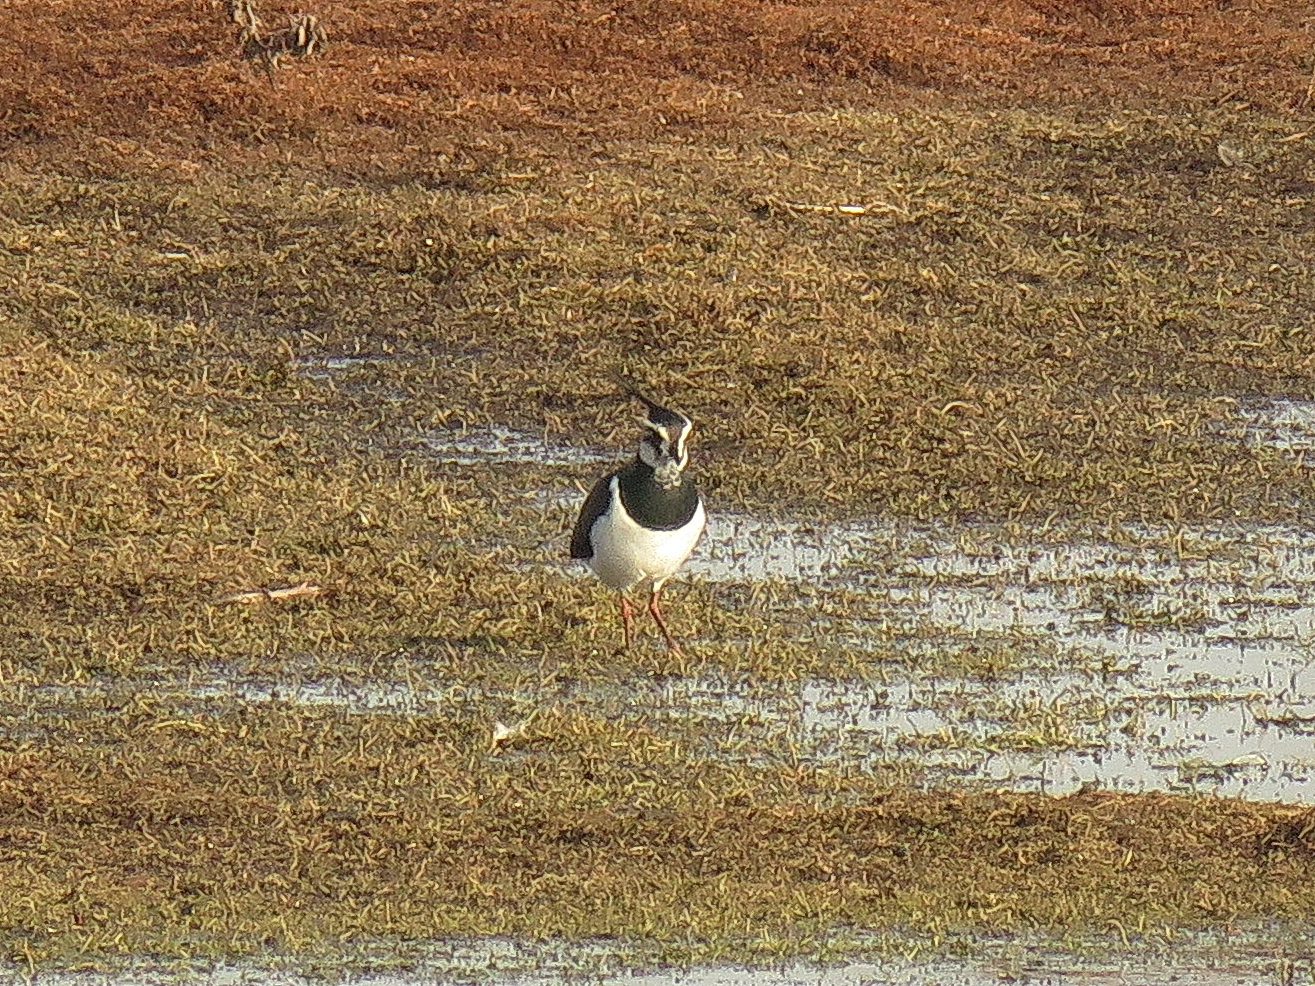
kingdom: Animalia
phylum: Chordata
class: Aves
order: Charadriiformes
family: Charadriidae
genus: Vanellus
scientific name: Vanellus vanellus
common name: Northern lapwing
